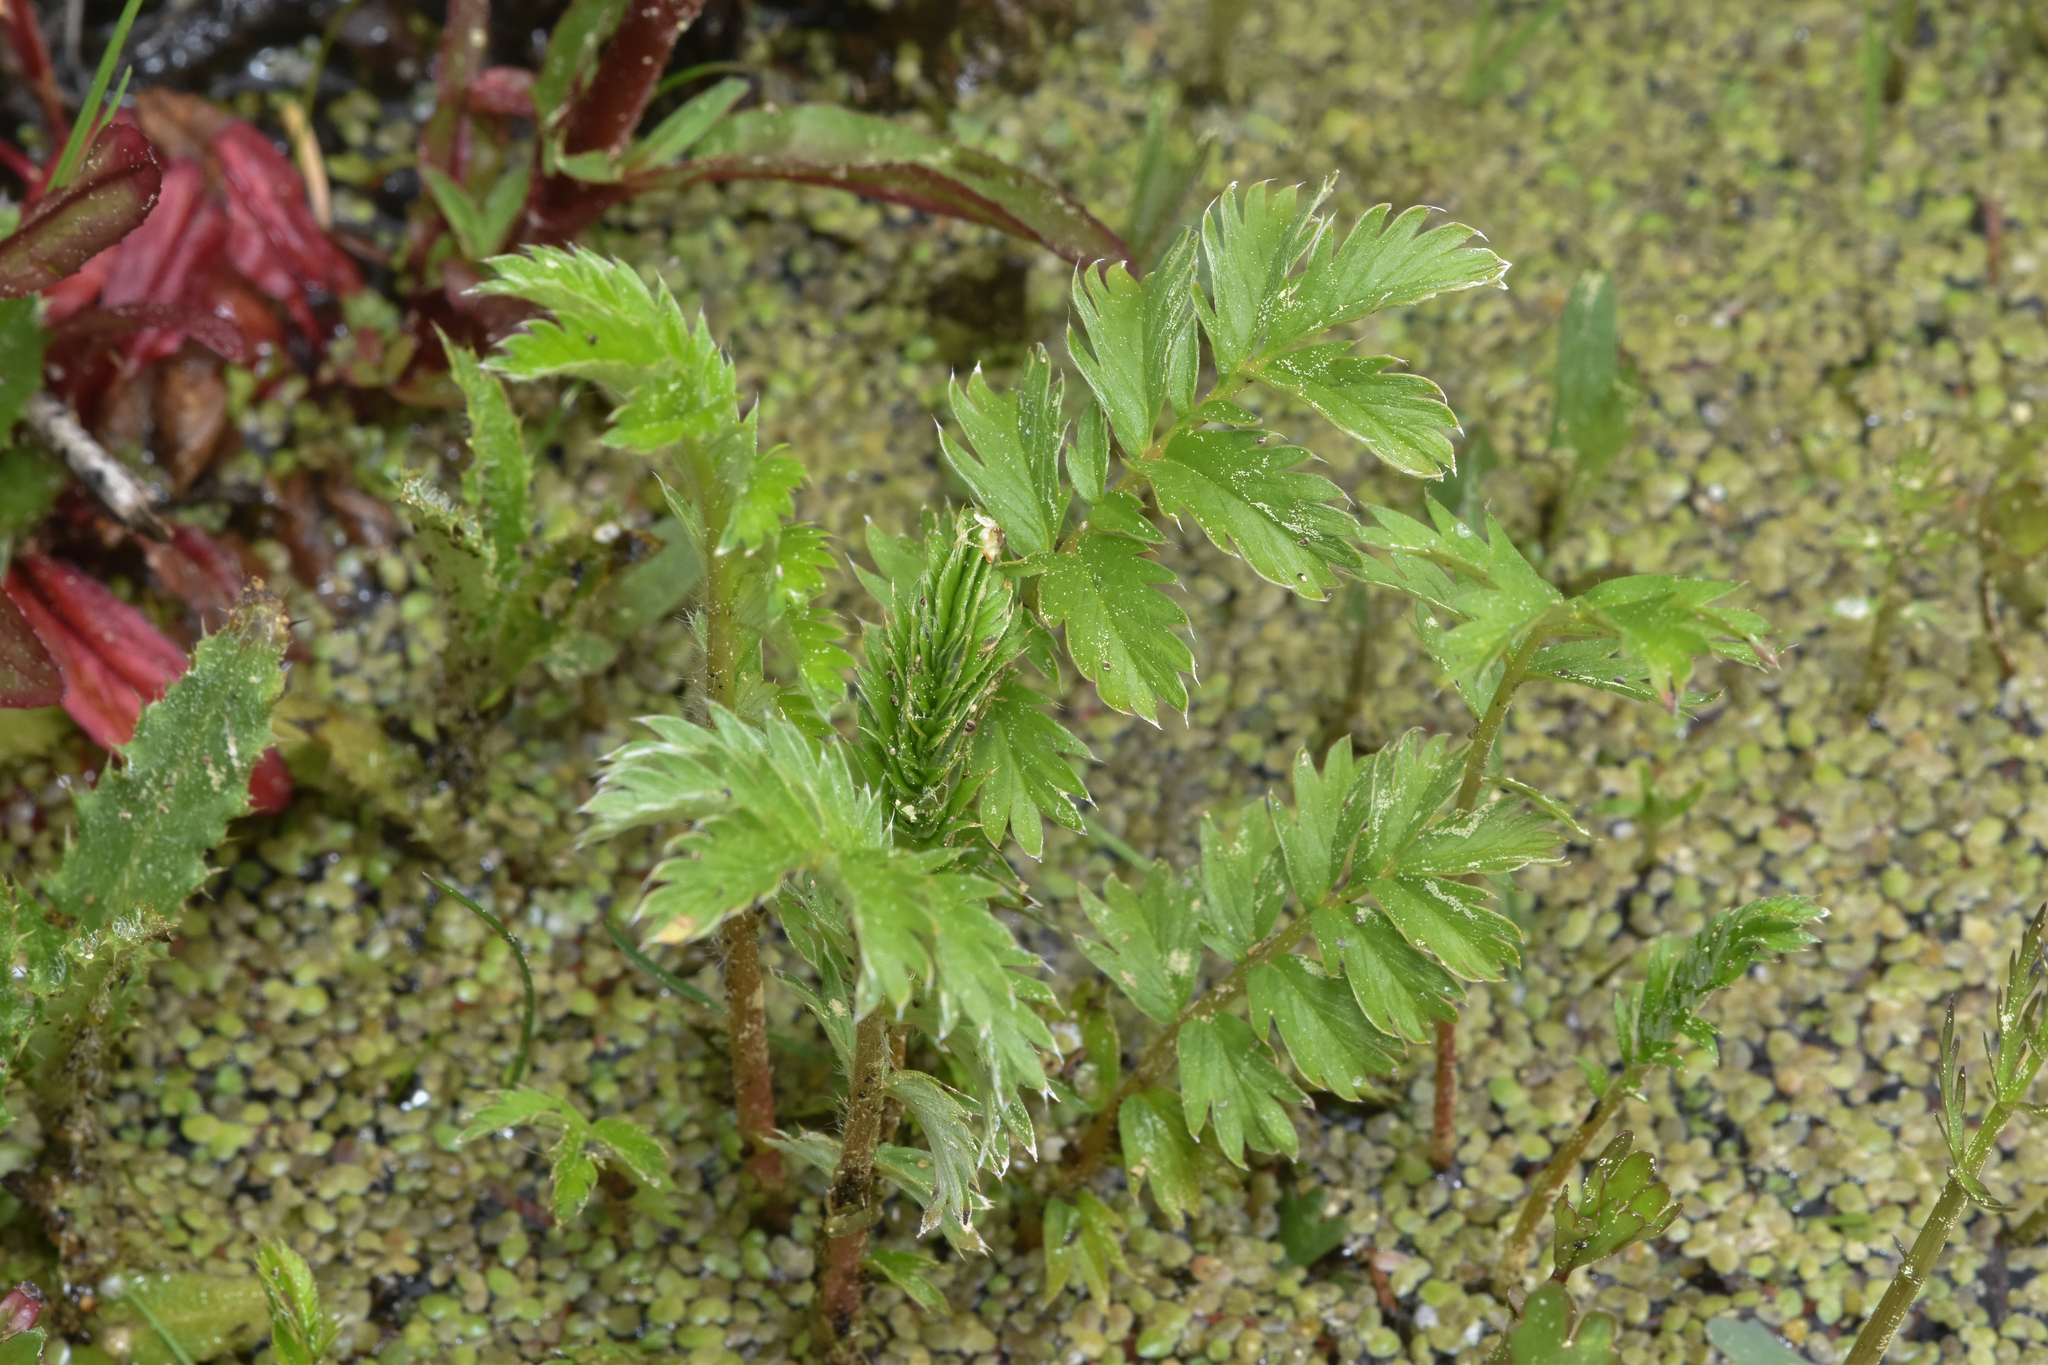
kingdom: Plantae
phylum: Tracheophyta
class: Magnoliopsida
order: Rosales
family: Rosaceae
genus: Argentina
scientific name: Argentina anserina
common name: Common silverweed
